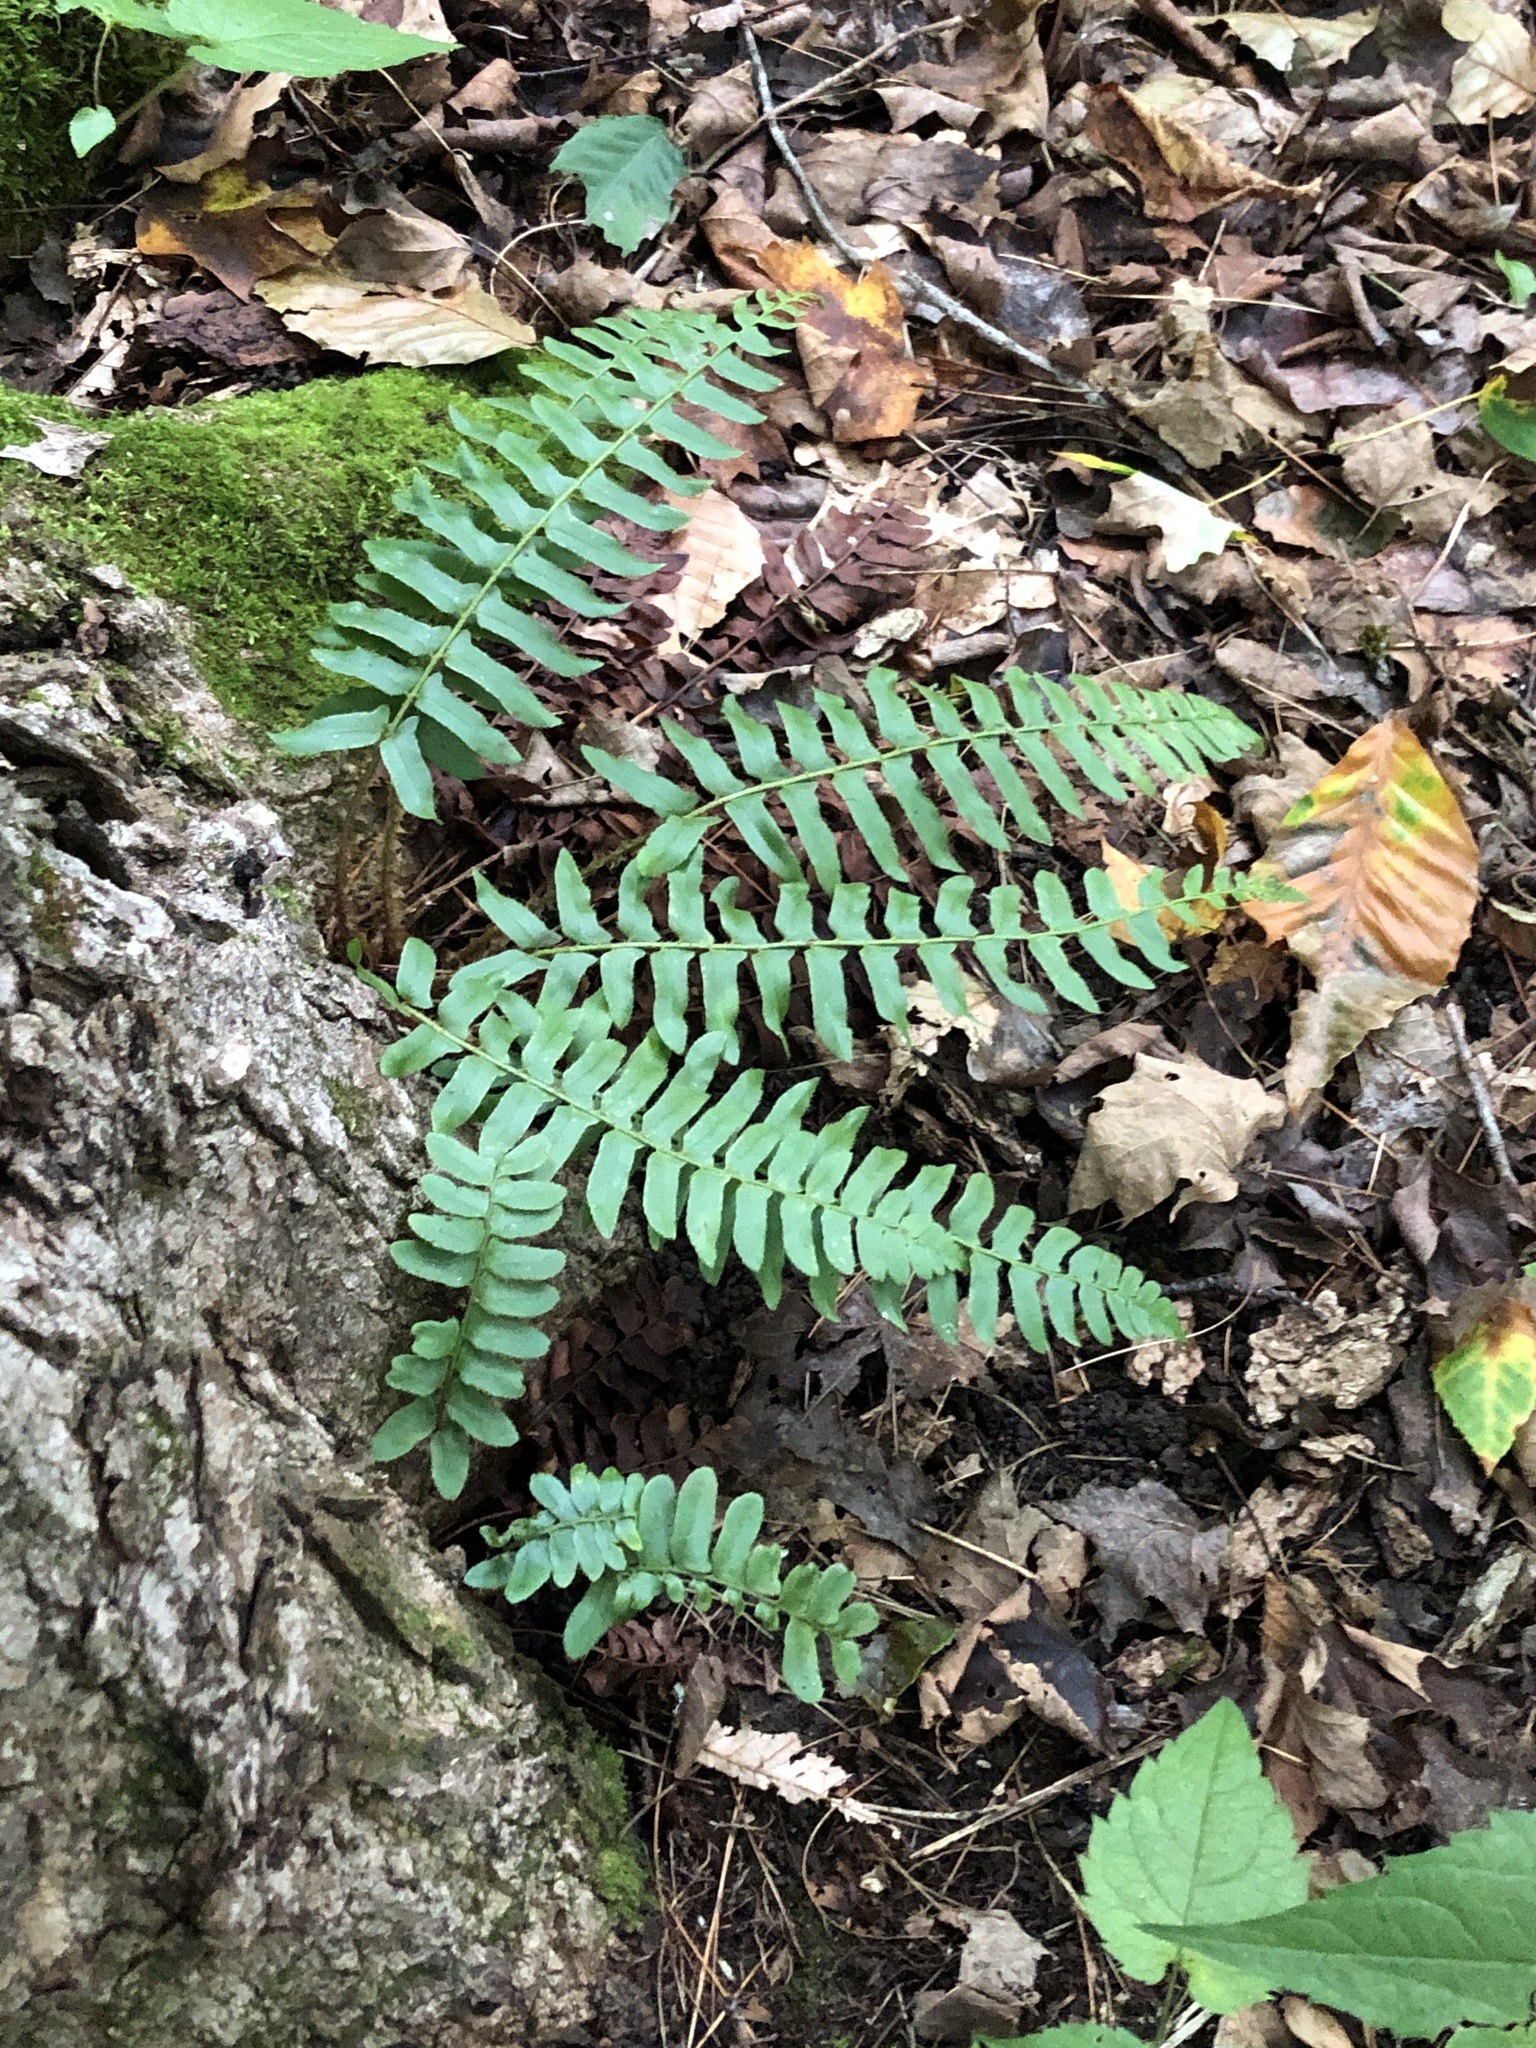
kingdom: Plantae
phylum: Tracheophyta
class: Polypodiopsida
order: Polypodiales
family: Dryopteridaceae
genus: Polystichum
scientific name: Polystichum acrostichoides
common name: Christmas fern
